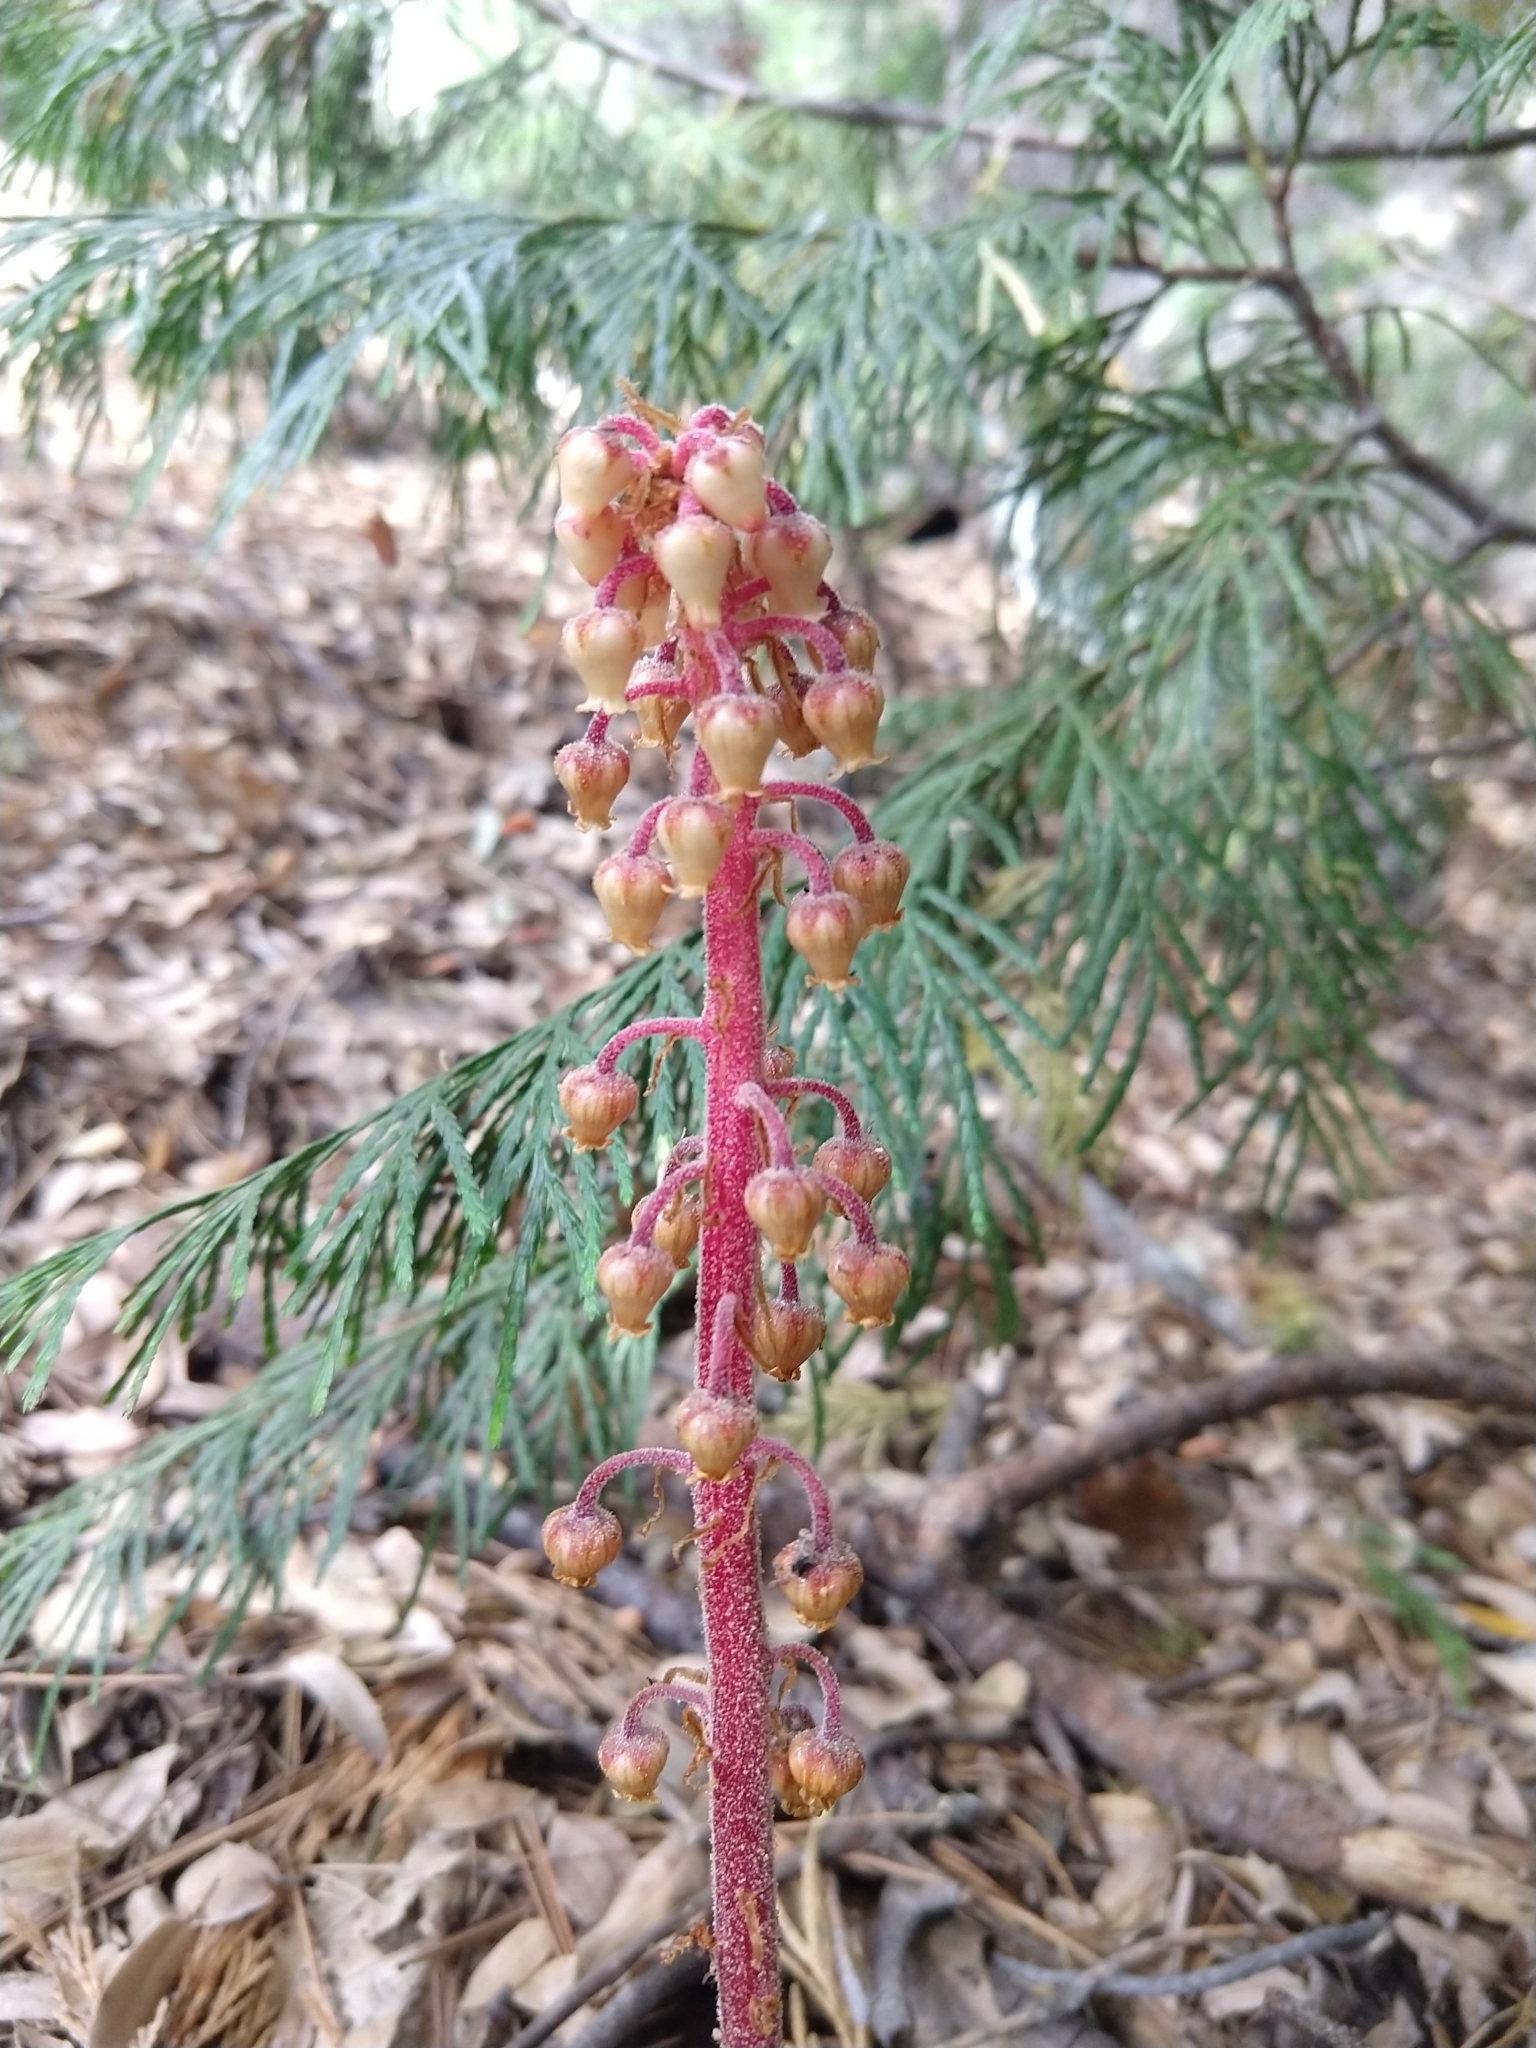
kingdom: Plantae
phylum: Tracheophyta
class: Magnoliopsida
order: Ericales
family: Ericaceae
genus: Pterospora
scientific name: Pterospora andromedea
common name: Giant bird's-nest
